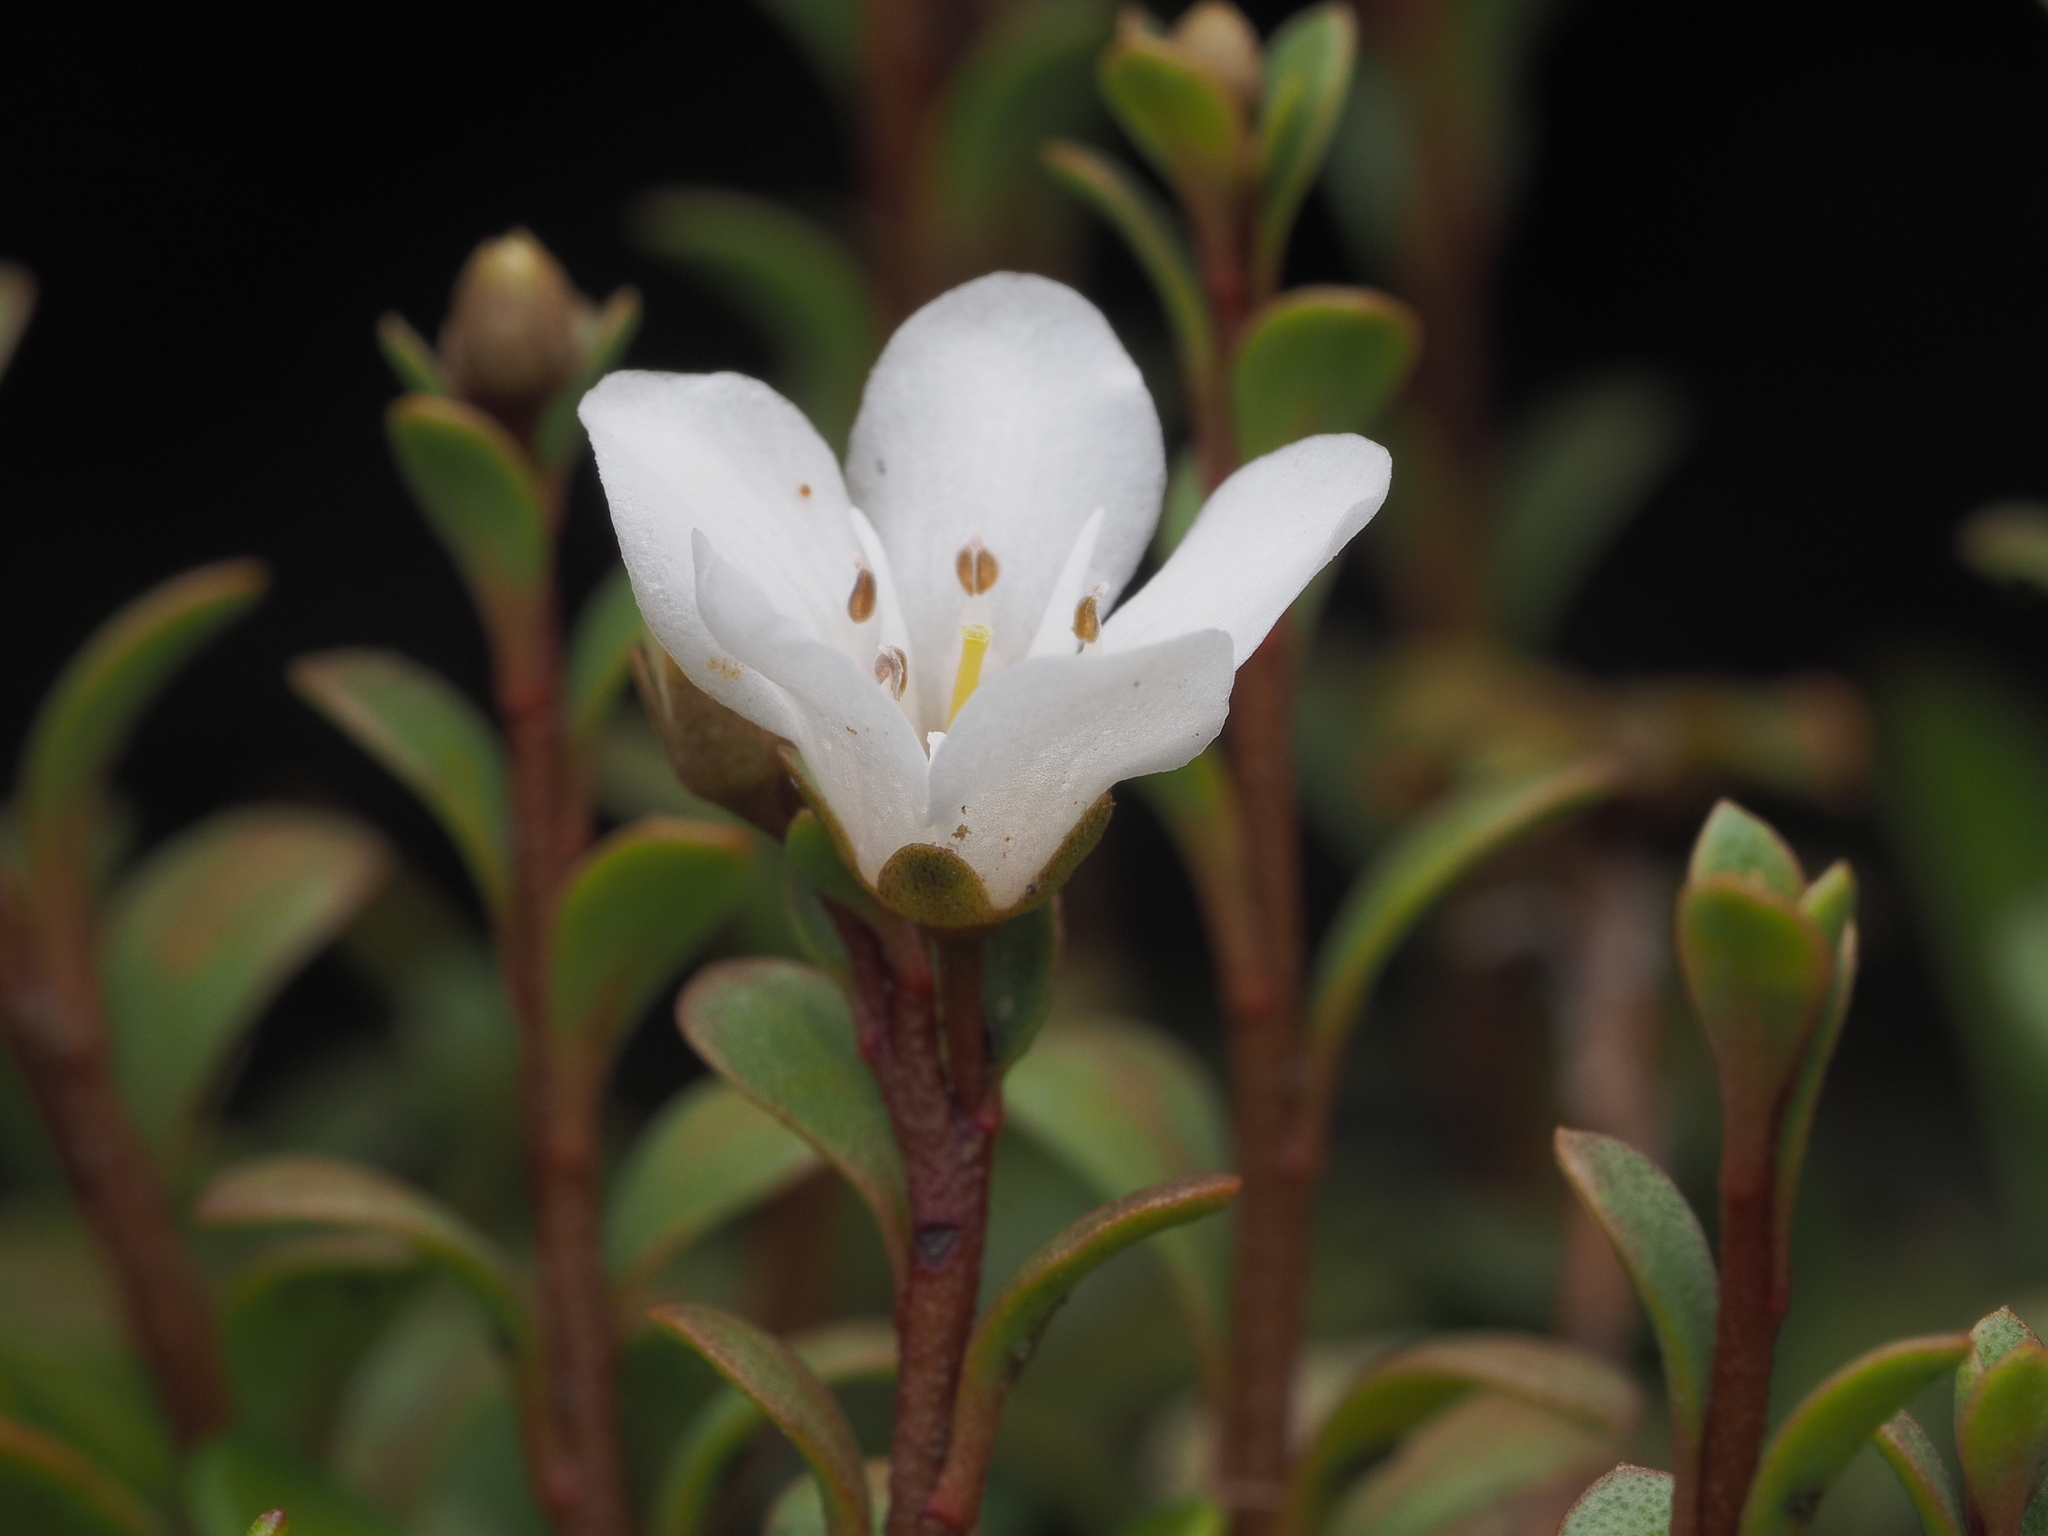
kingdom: Plantae
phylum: Tracheophyta
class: Magnoliopsida
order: Ericales
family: Primulaceae
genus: Samolus
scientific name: Samolus repens
